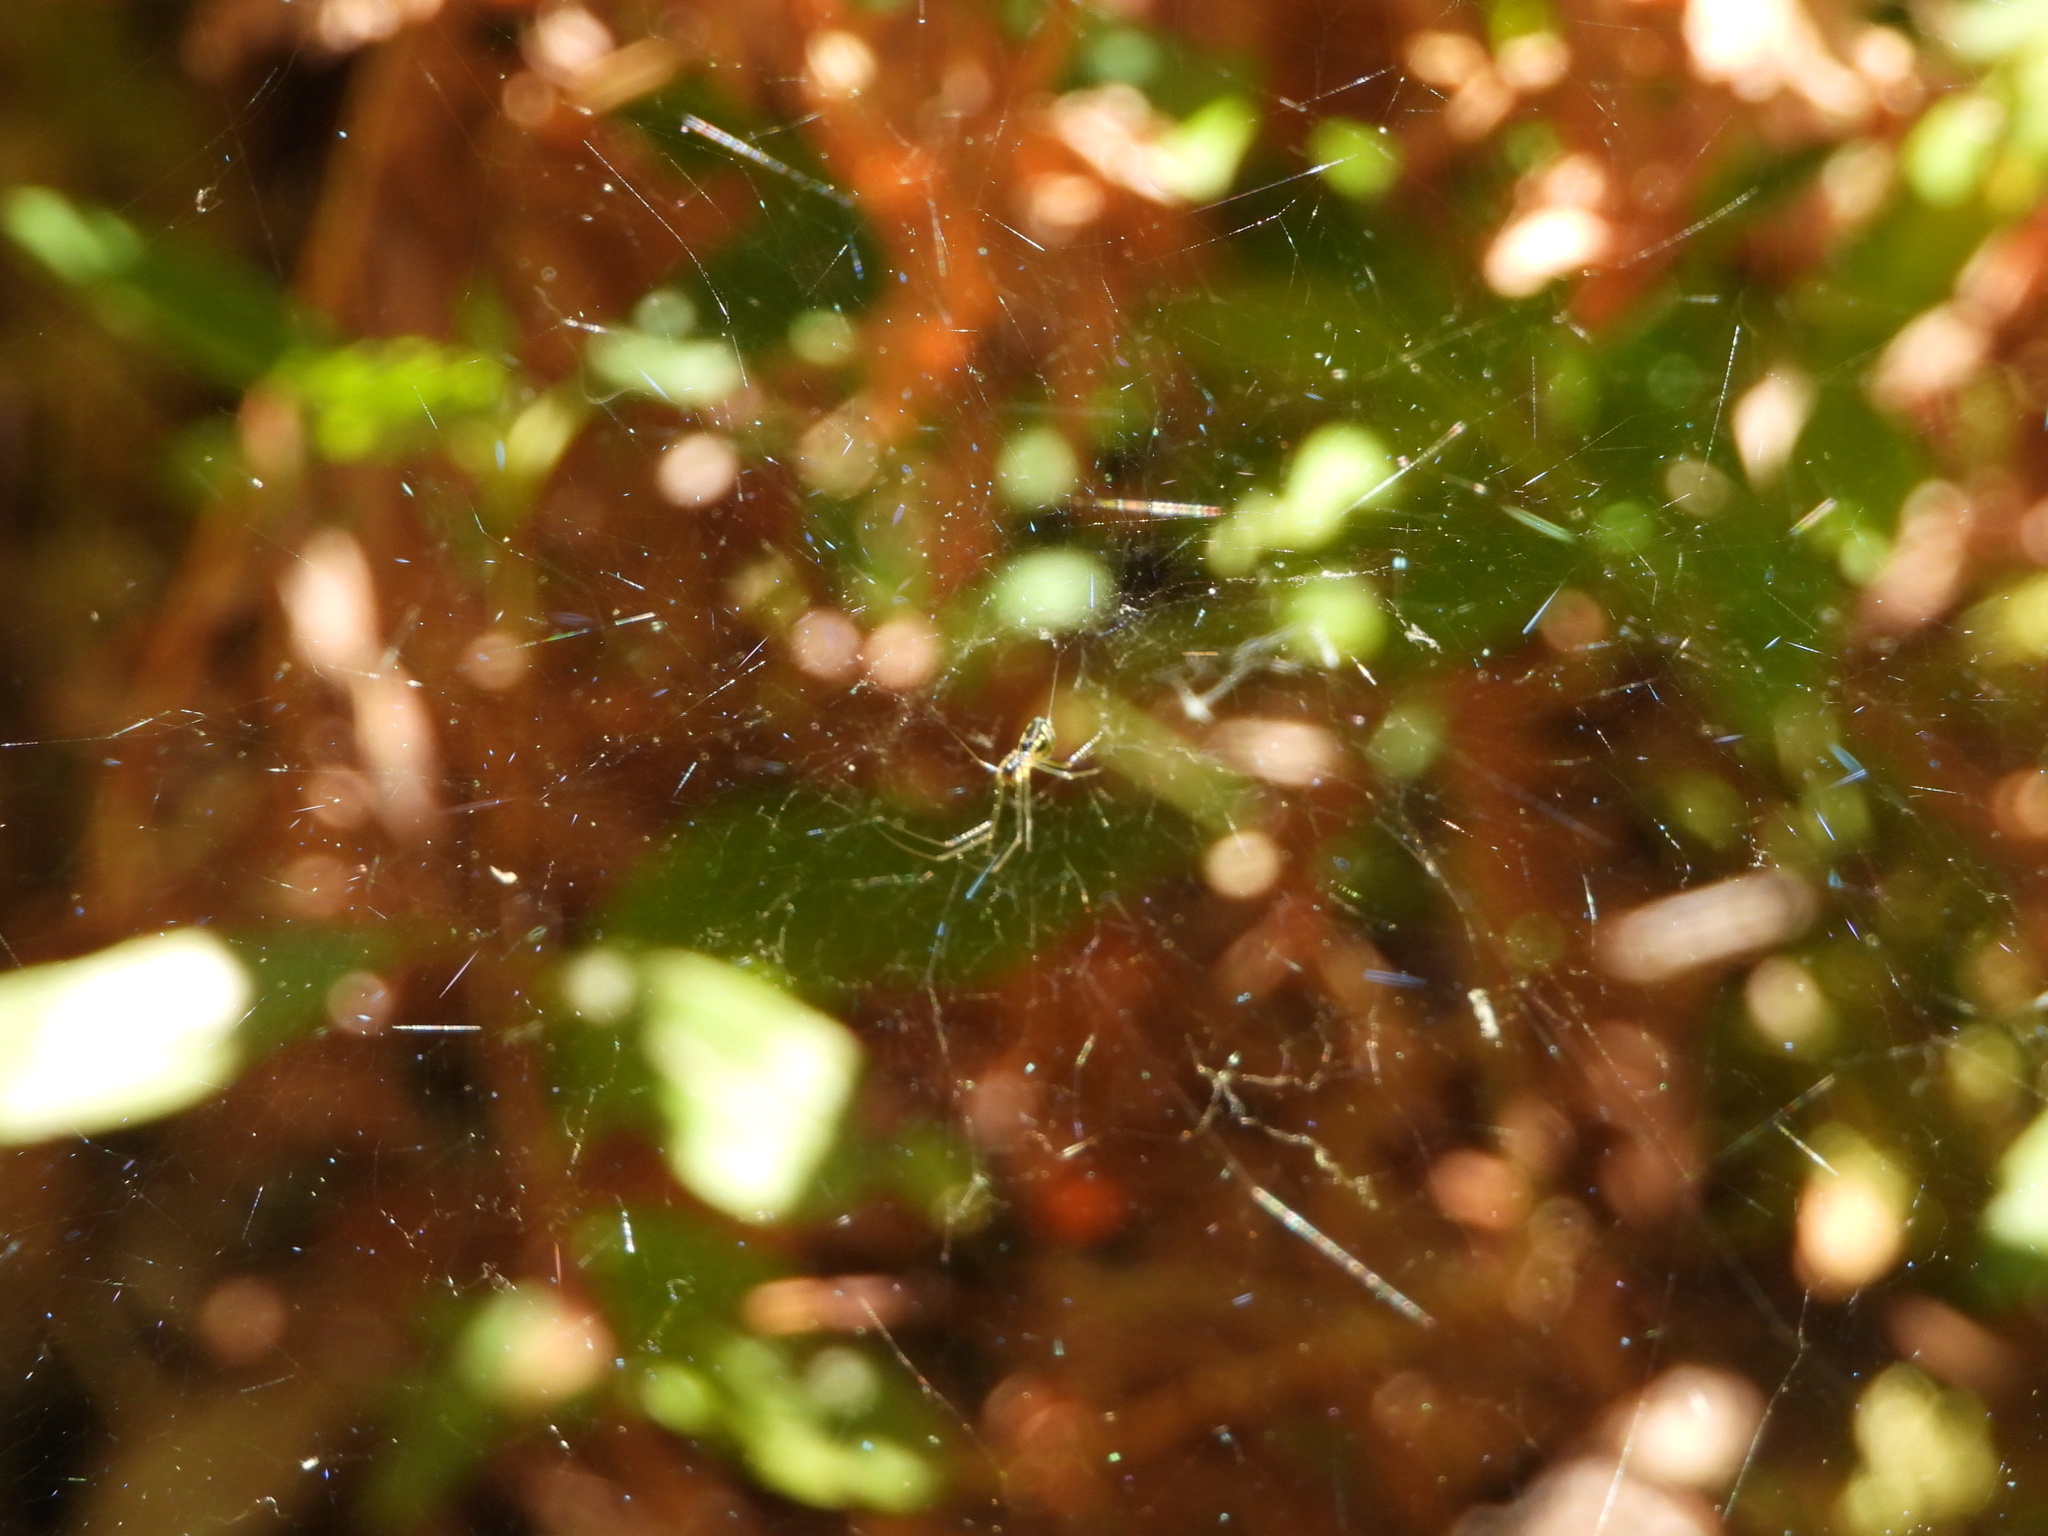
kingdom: Animalia
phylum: Arthropoda
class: Arachnida
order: Araneae
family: Linyphiidae
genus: Neriene
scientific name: Neriene radiata
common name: Filmy dome spider
